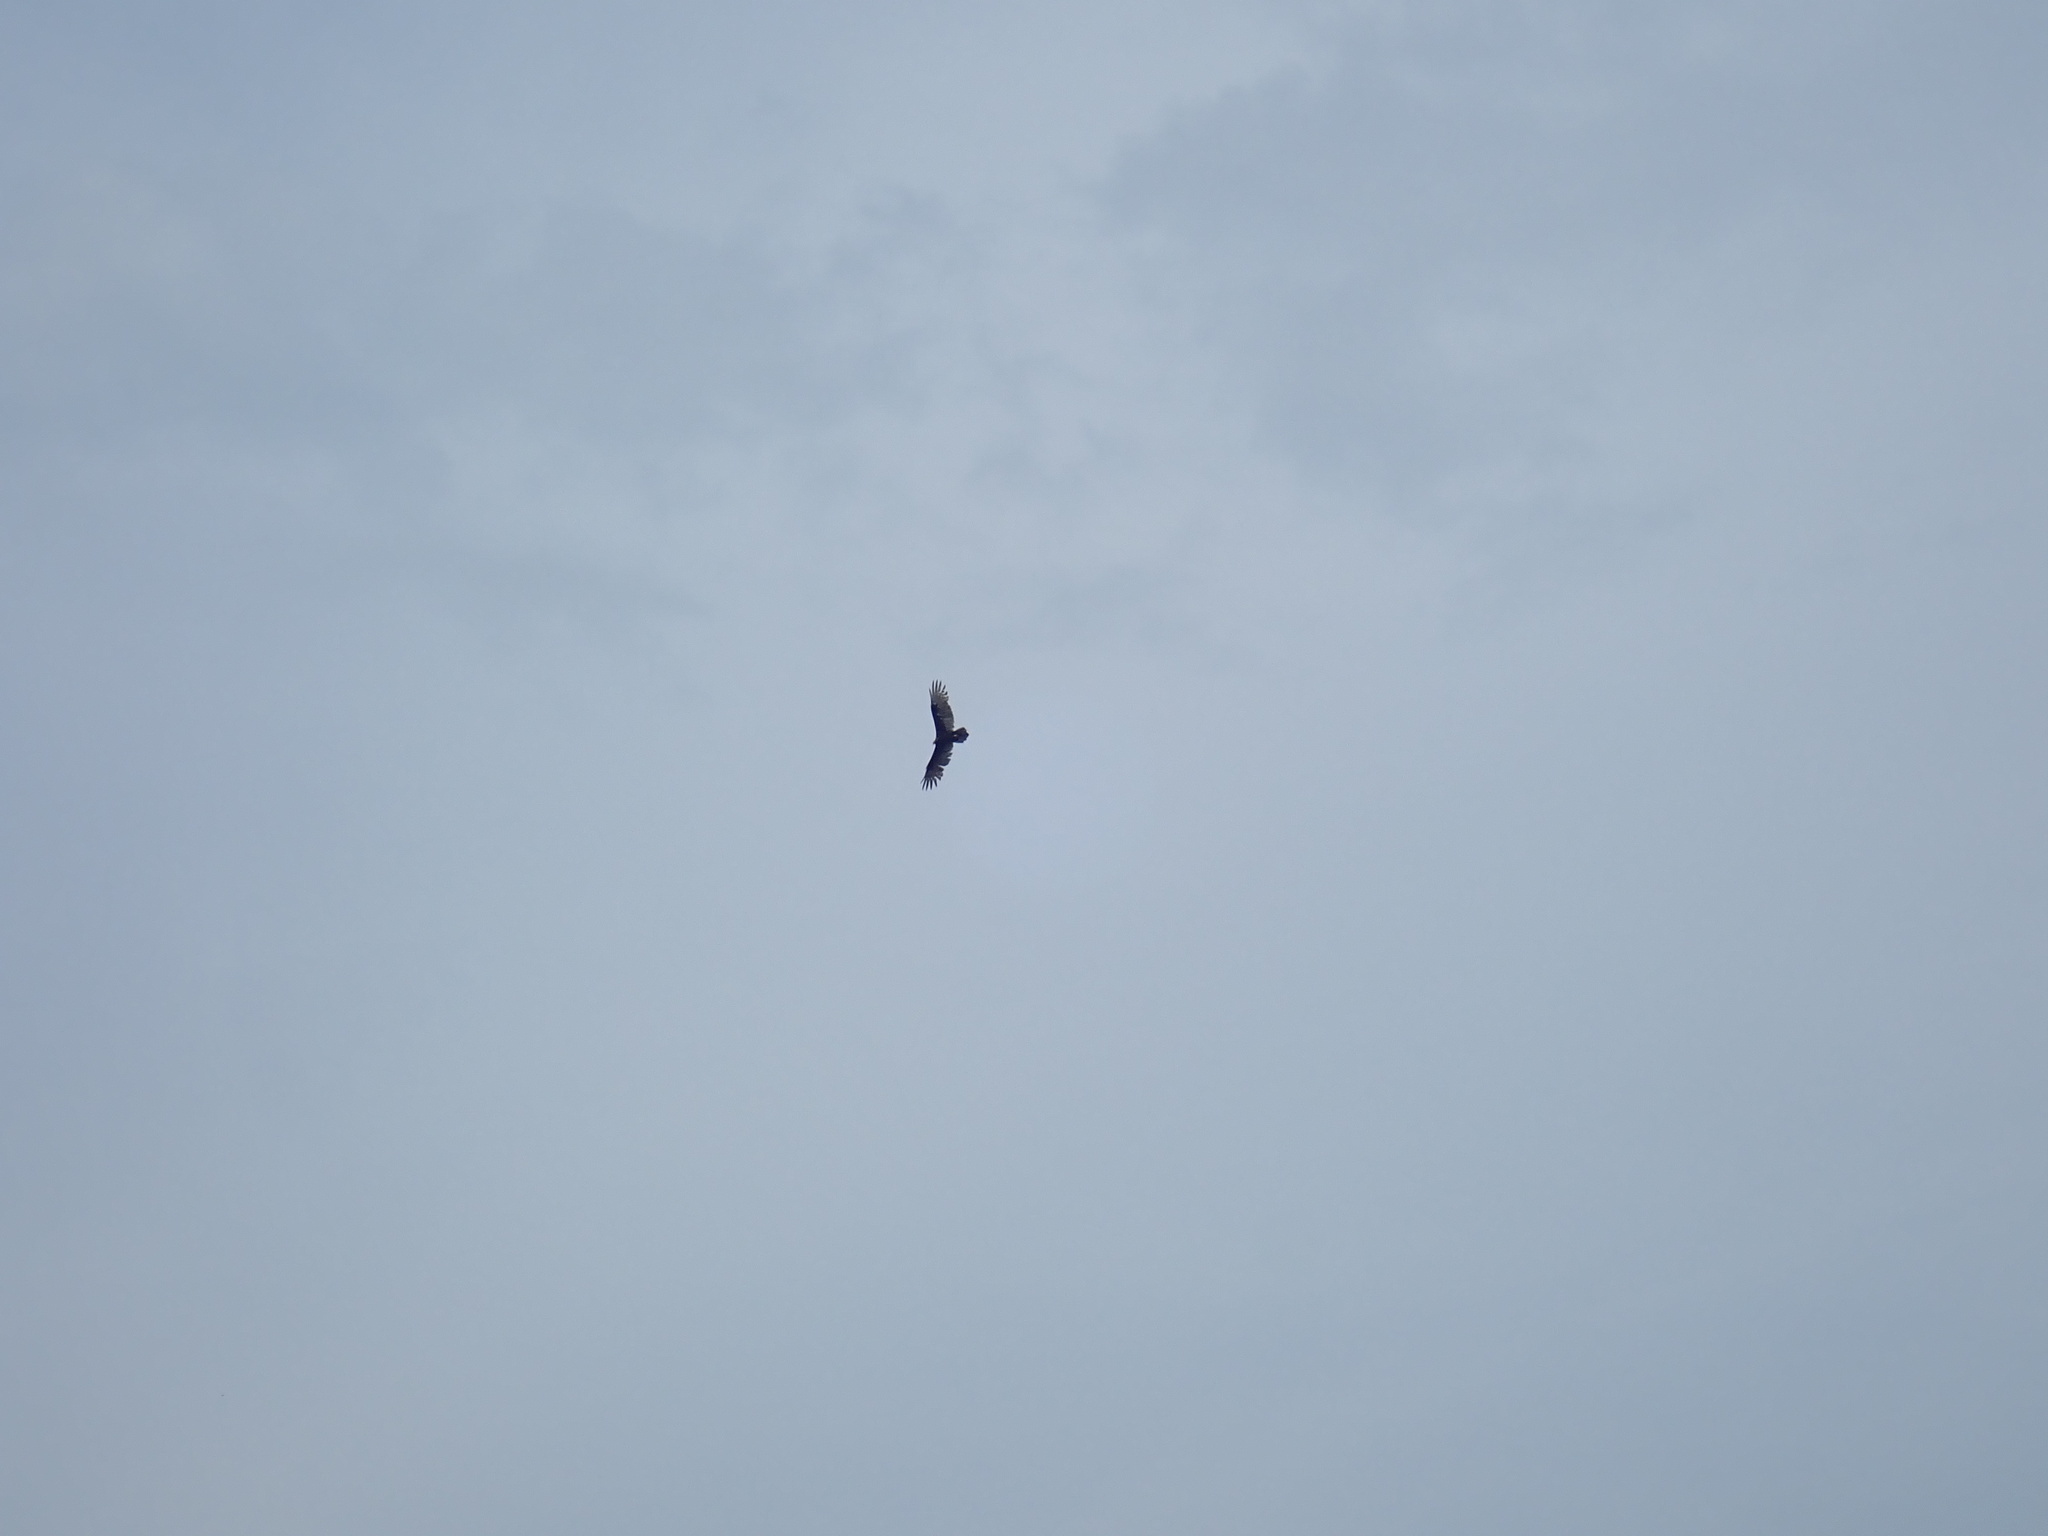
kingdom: Animalia
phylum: Chordata
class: Aves
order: Accipitriformes
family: Cathartidae
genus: Cathartes
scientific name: Cathartes aura
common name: Turkey vulture
